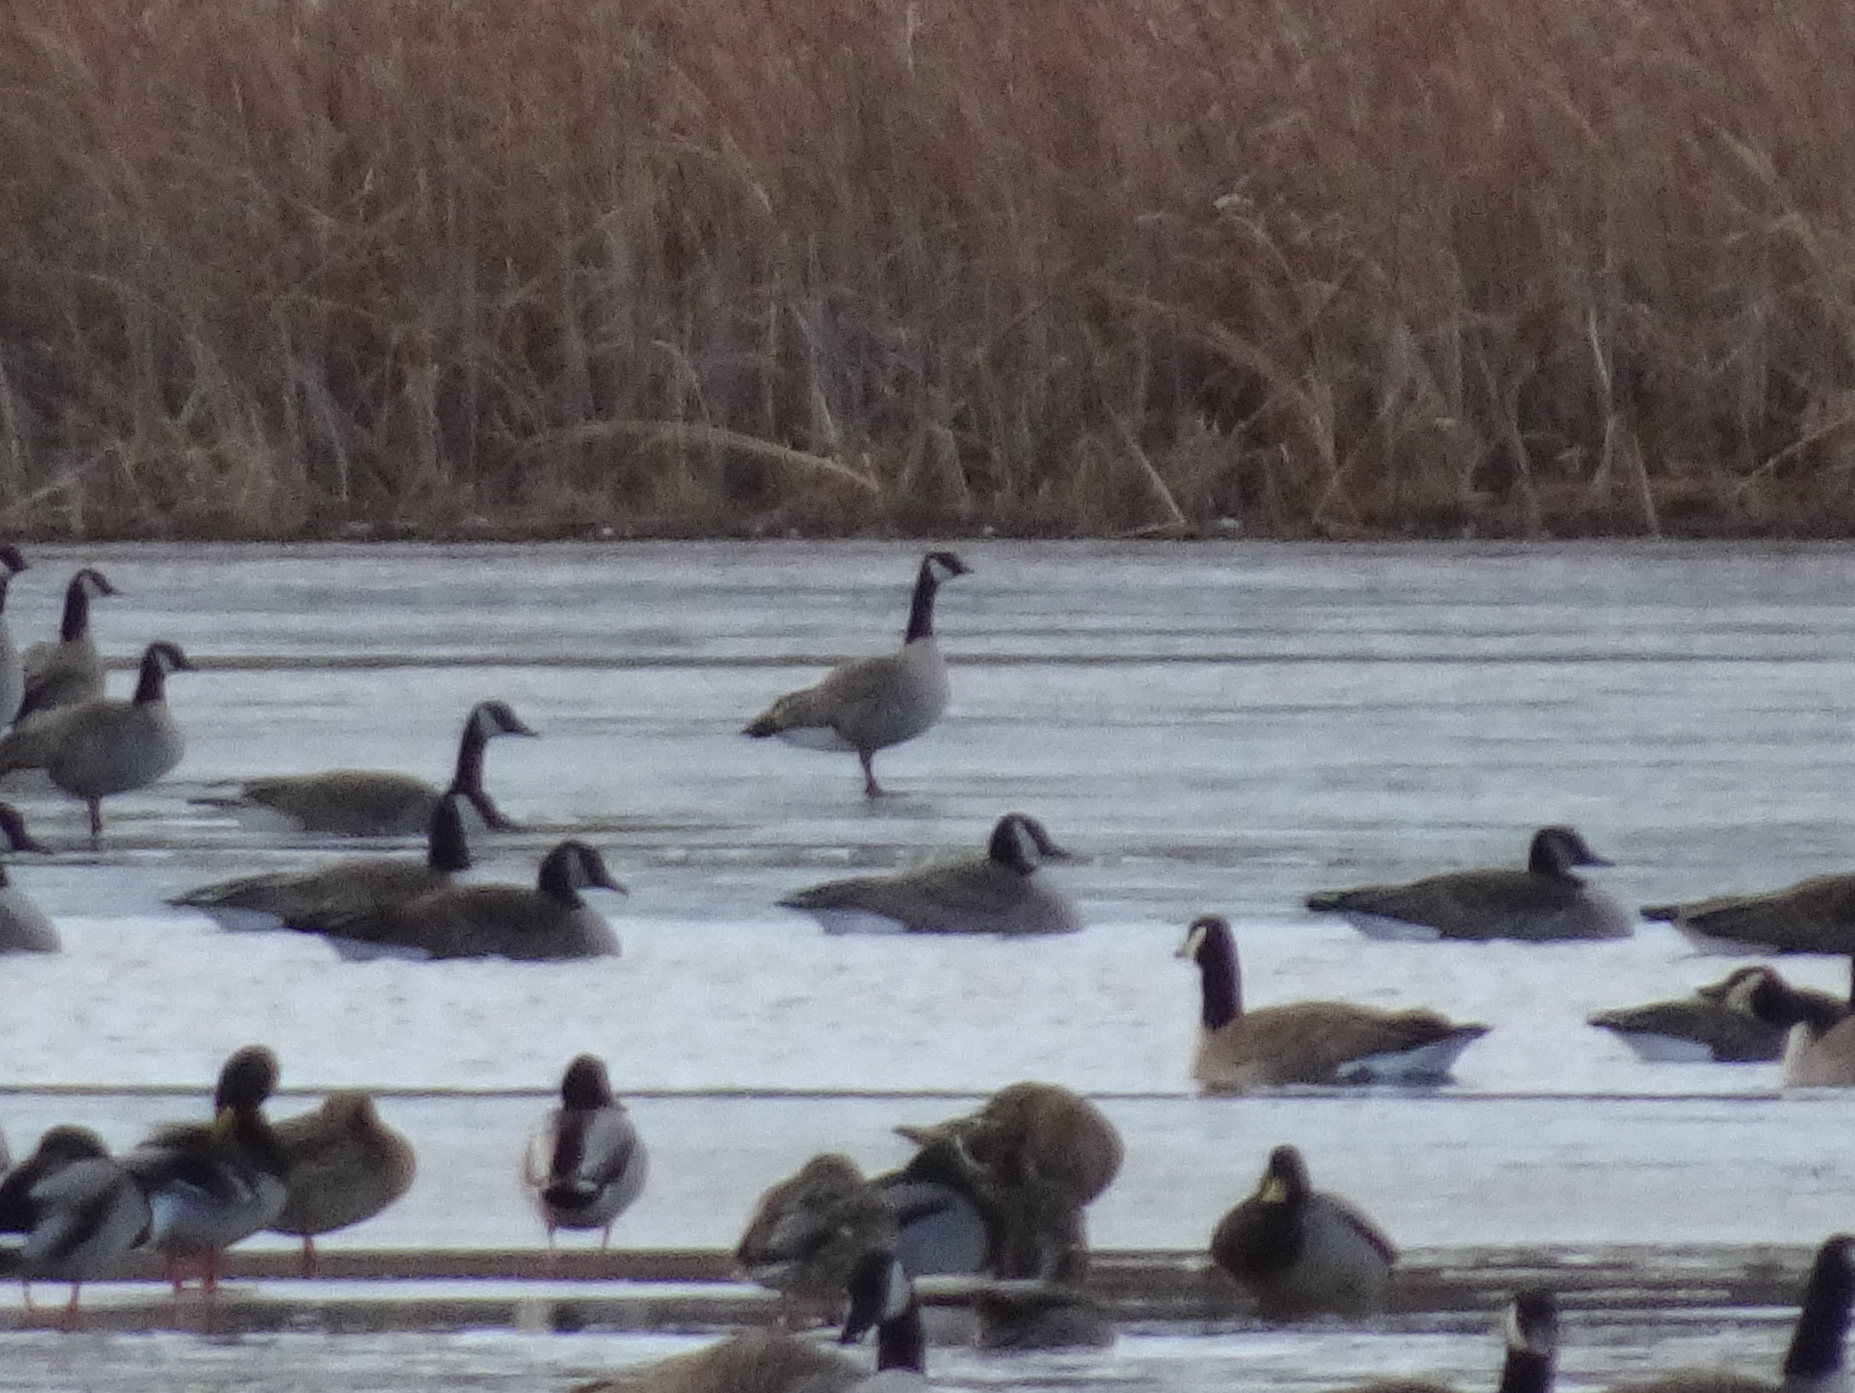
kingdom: Animalia
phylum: Chordata
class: Aves
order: Anseriformes
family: Anatidae
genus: Branta
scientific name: Branta hutchinsii
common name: Cackling goose
